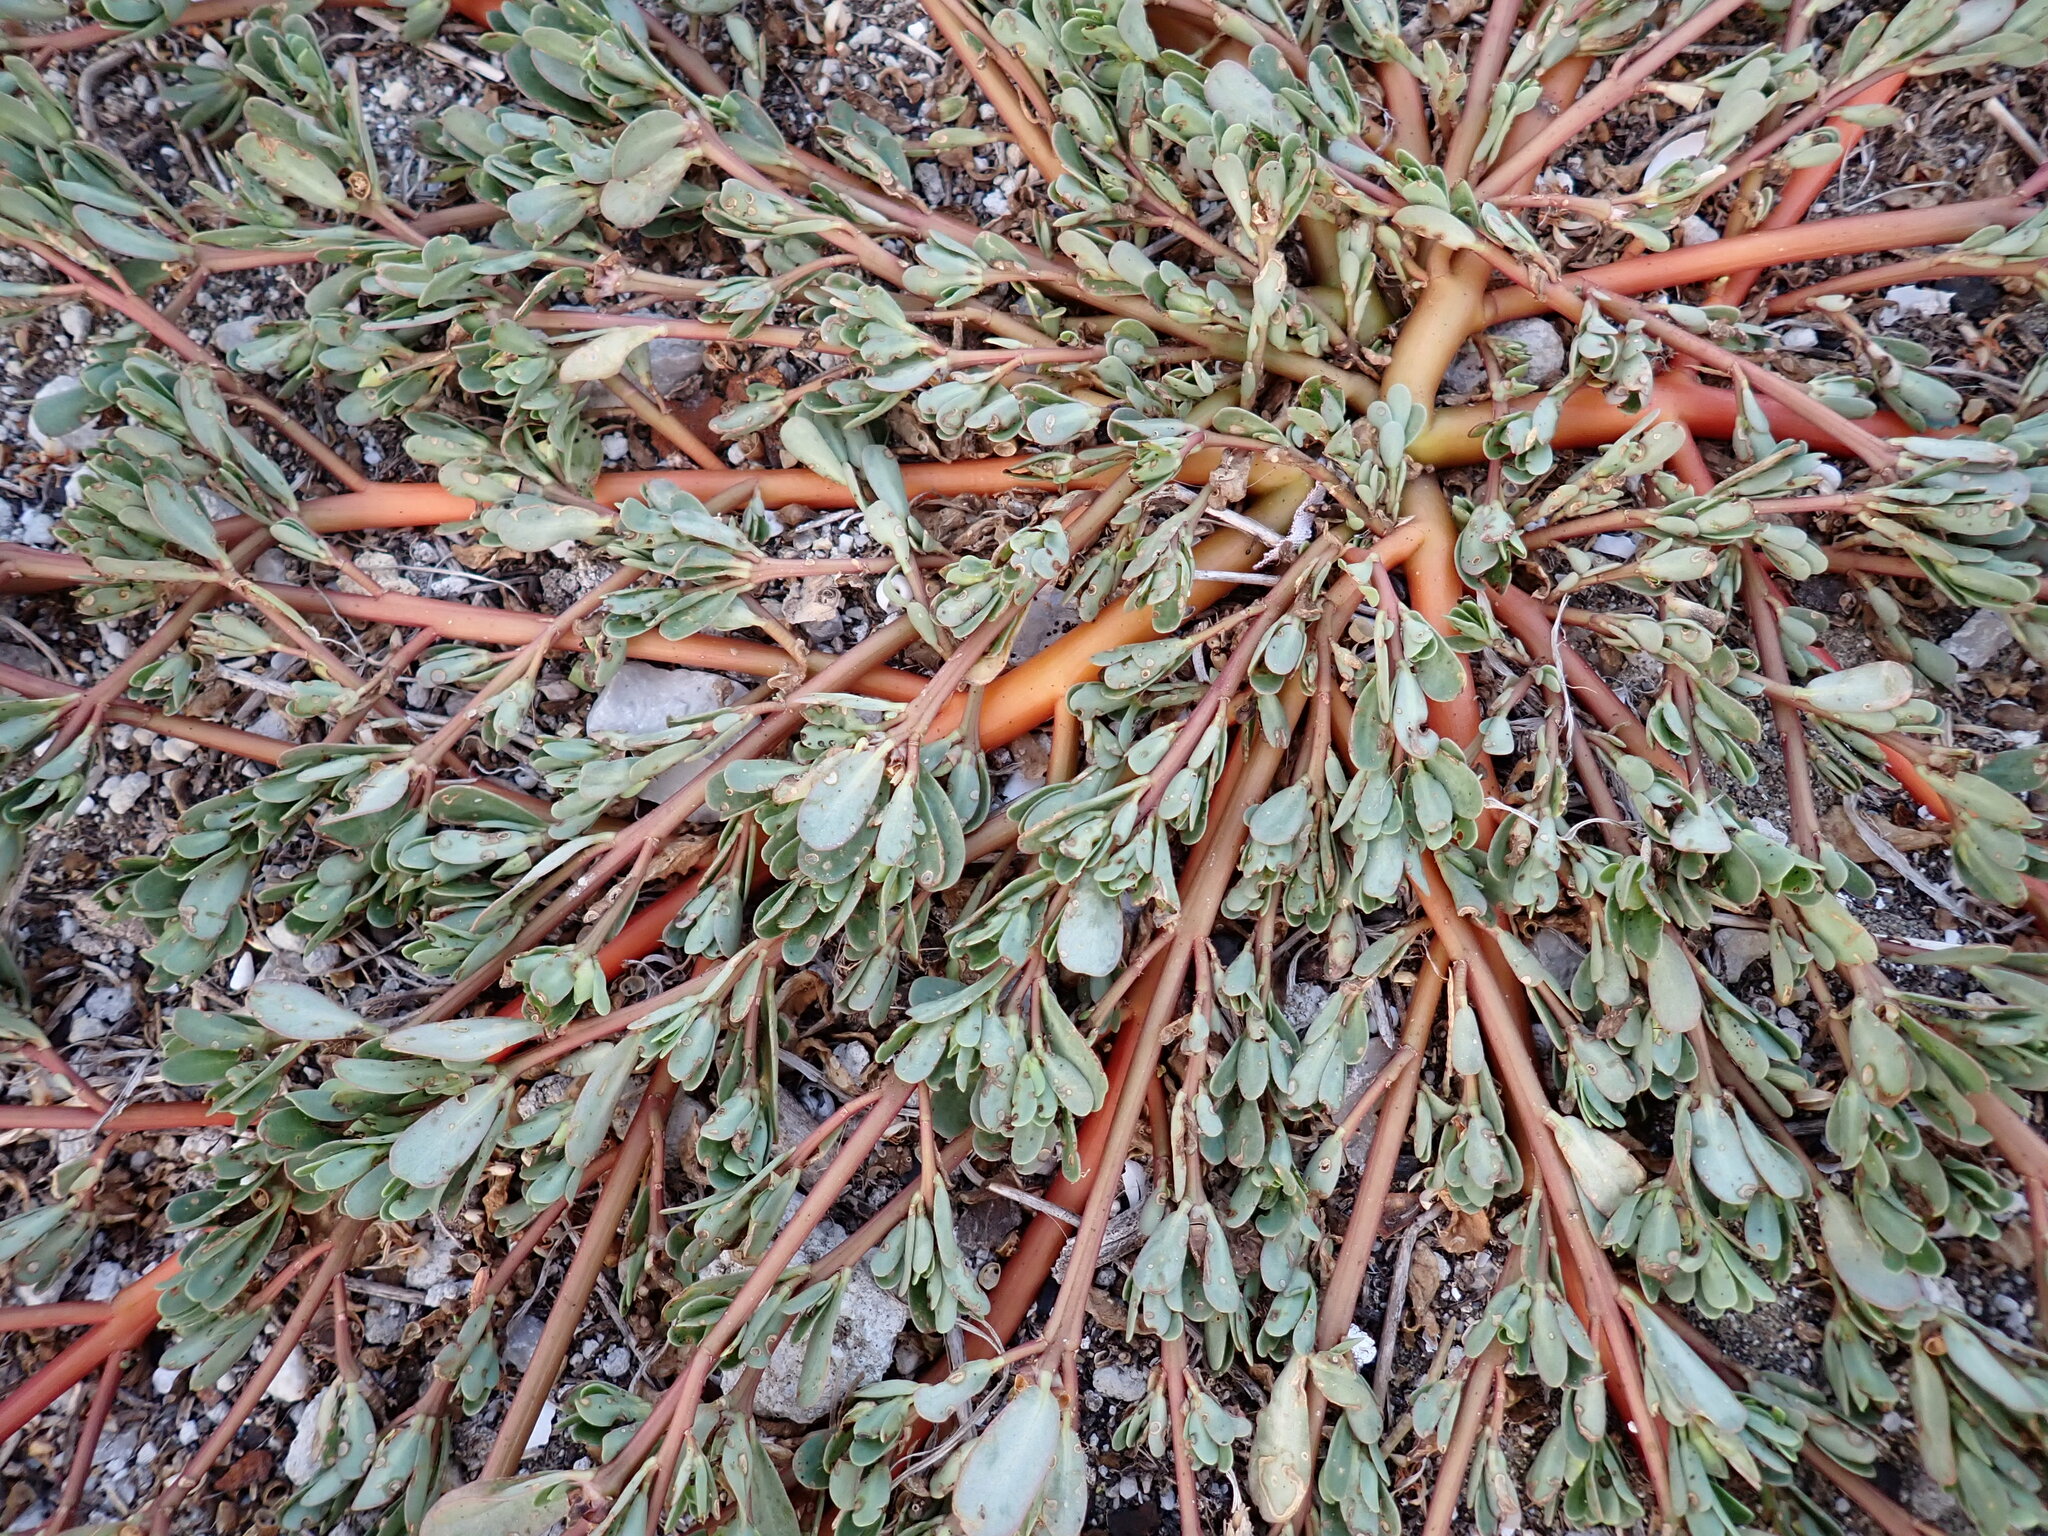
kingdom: Plantae
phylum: Tracheophyta
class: Magnoliopsida
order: Caryophyllales
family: Portulacaceae
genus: Portulaca
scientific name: Portulaca oleracea
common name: Common purslane
